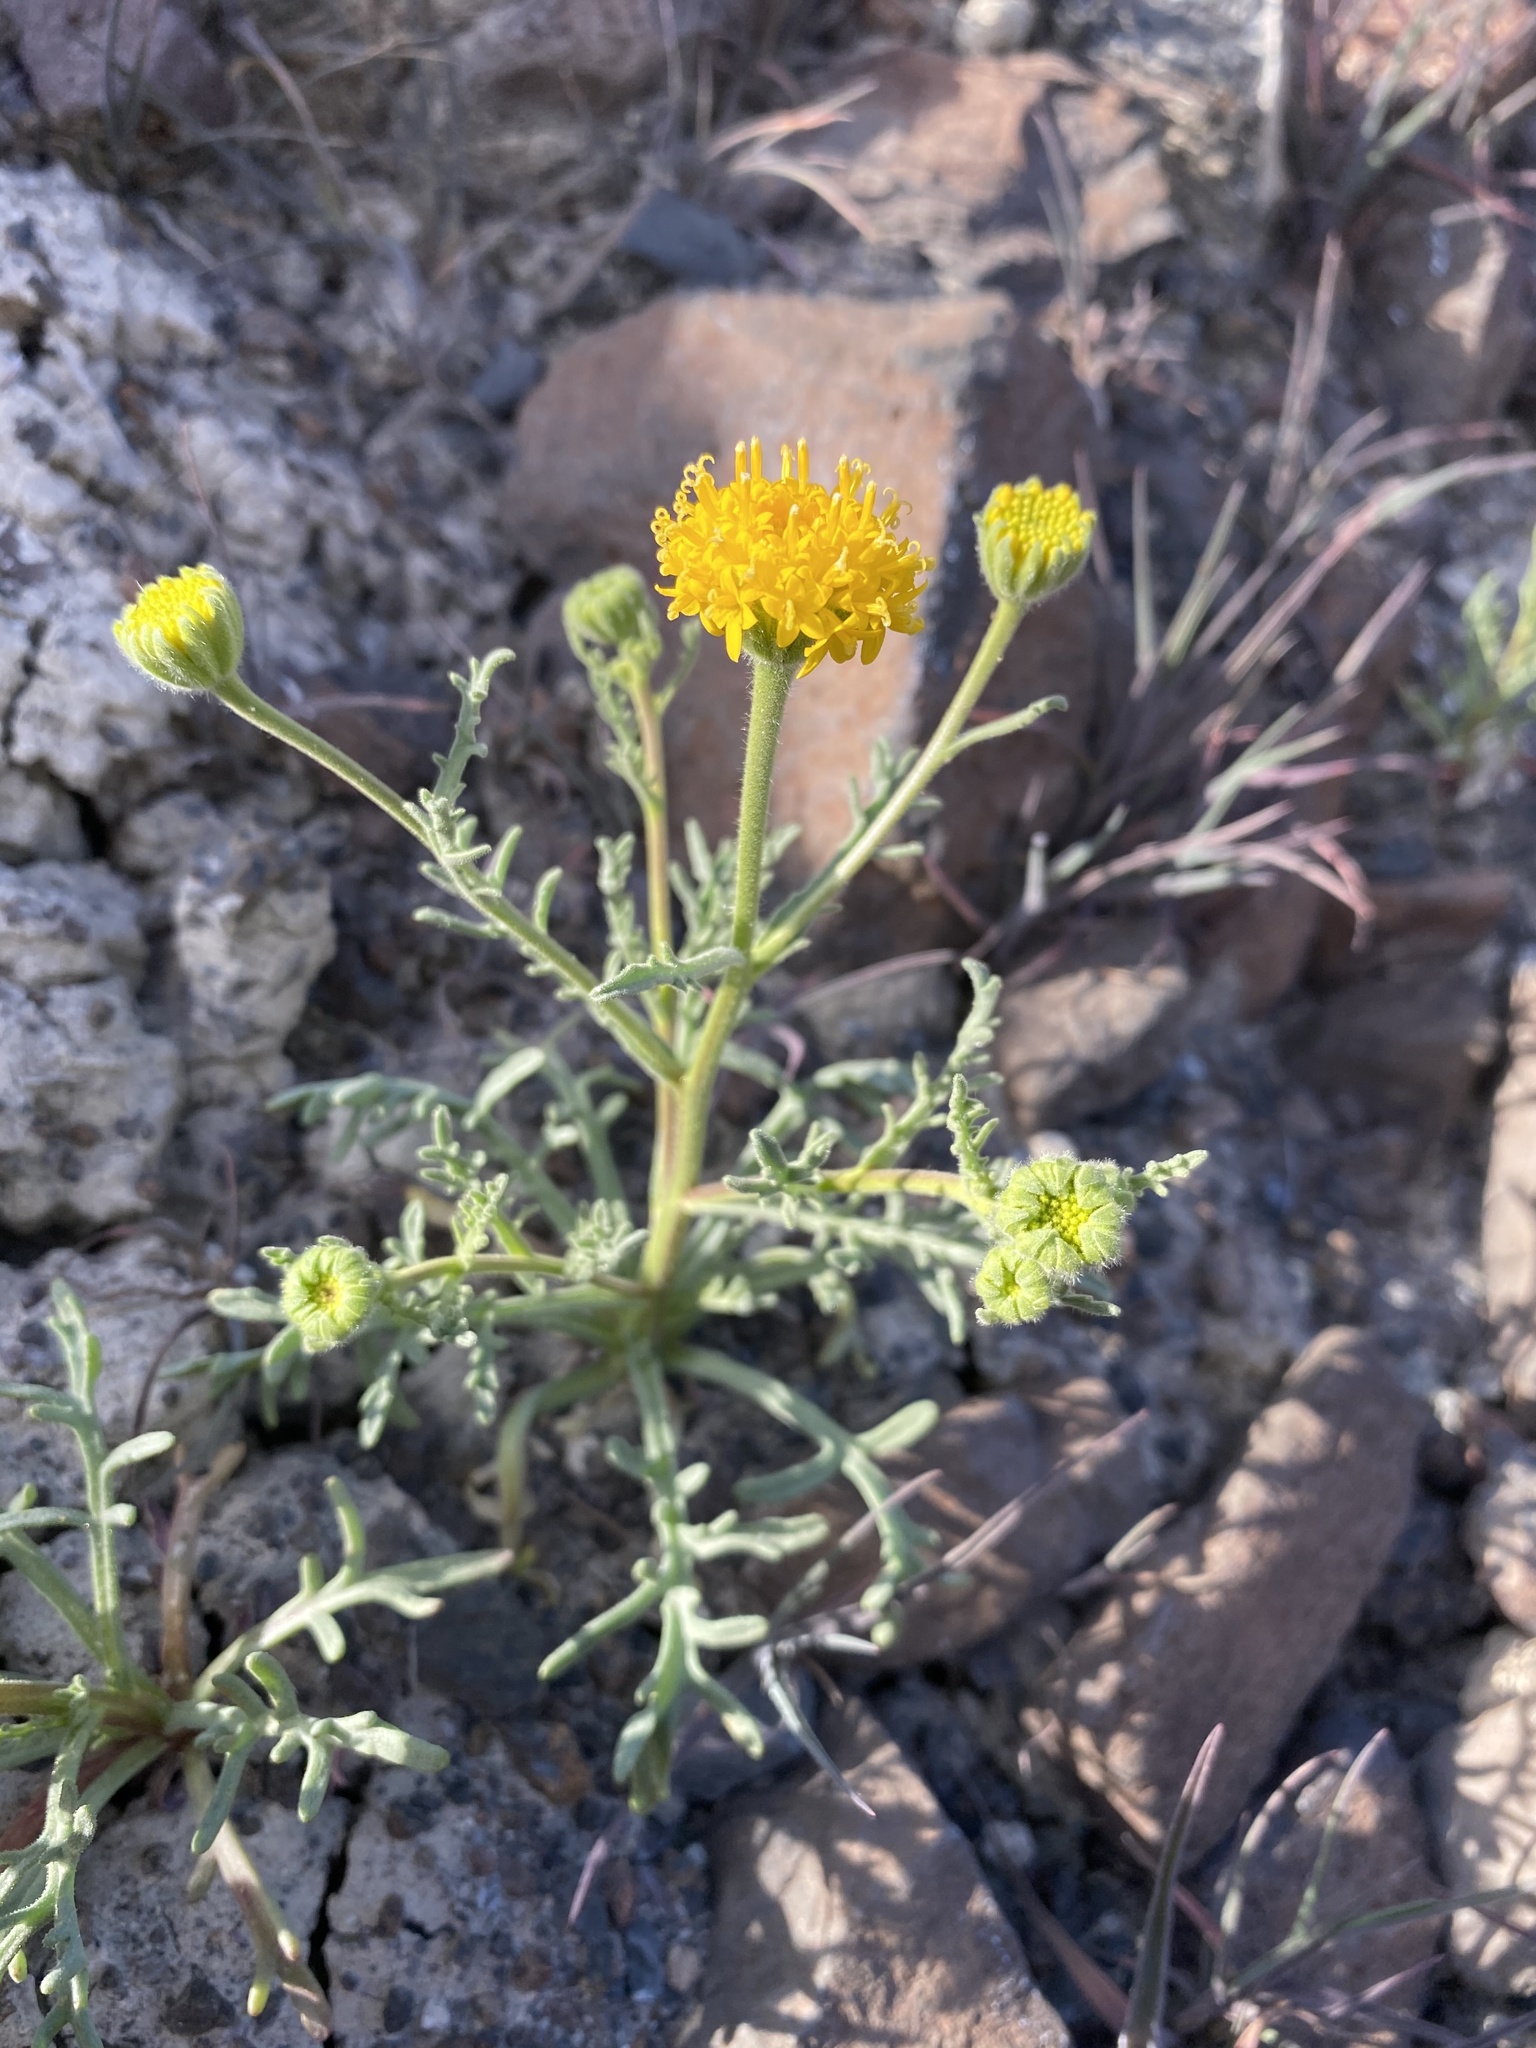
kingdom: Plantae
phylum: Tracheophyta
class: Magnoliopsida
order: Asterales
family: Asteraceae
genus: Chaenactis
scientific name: Chaenactis nevii
